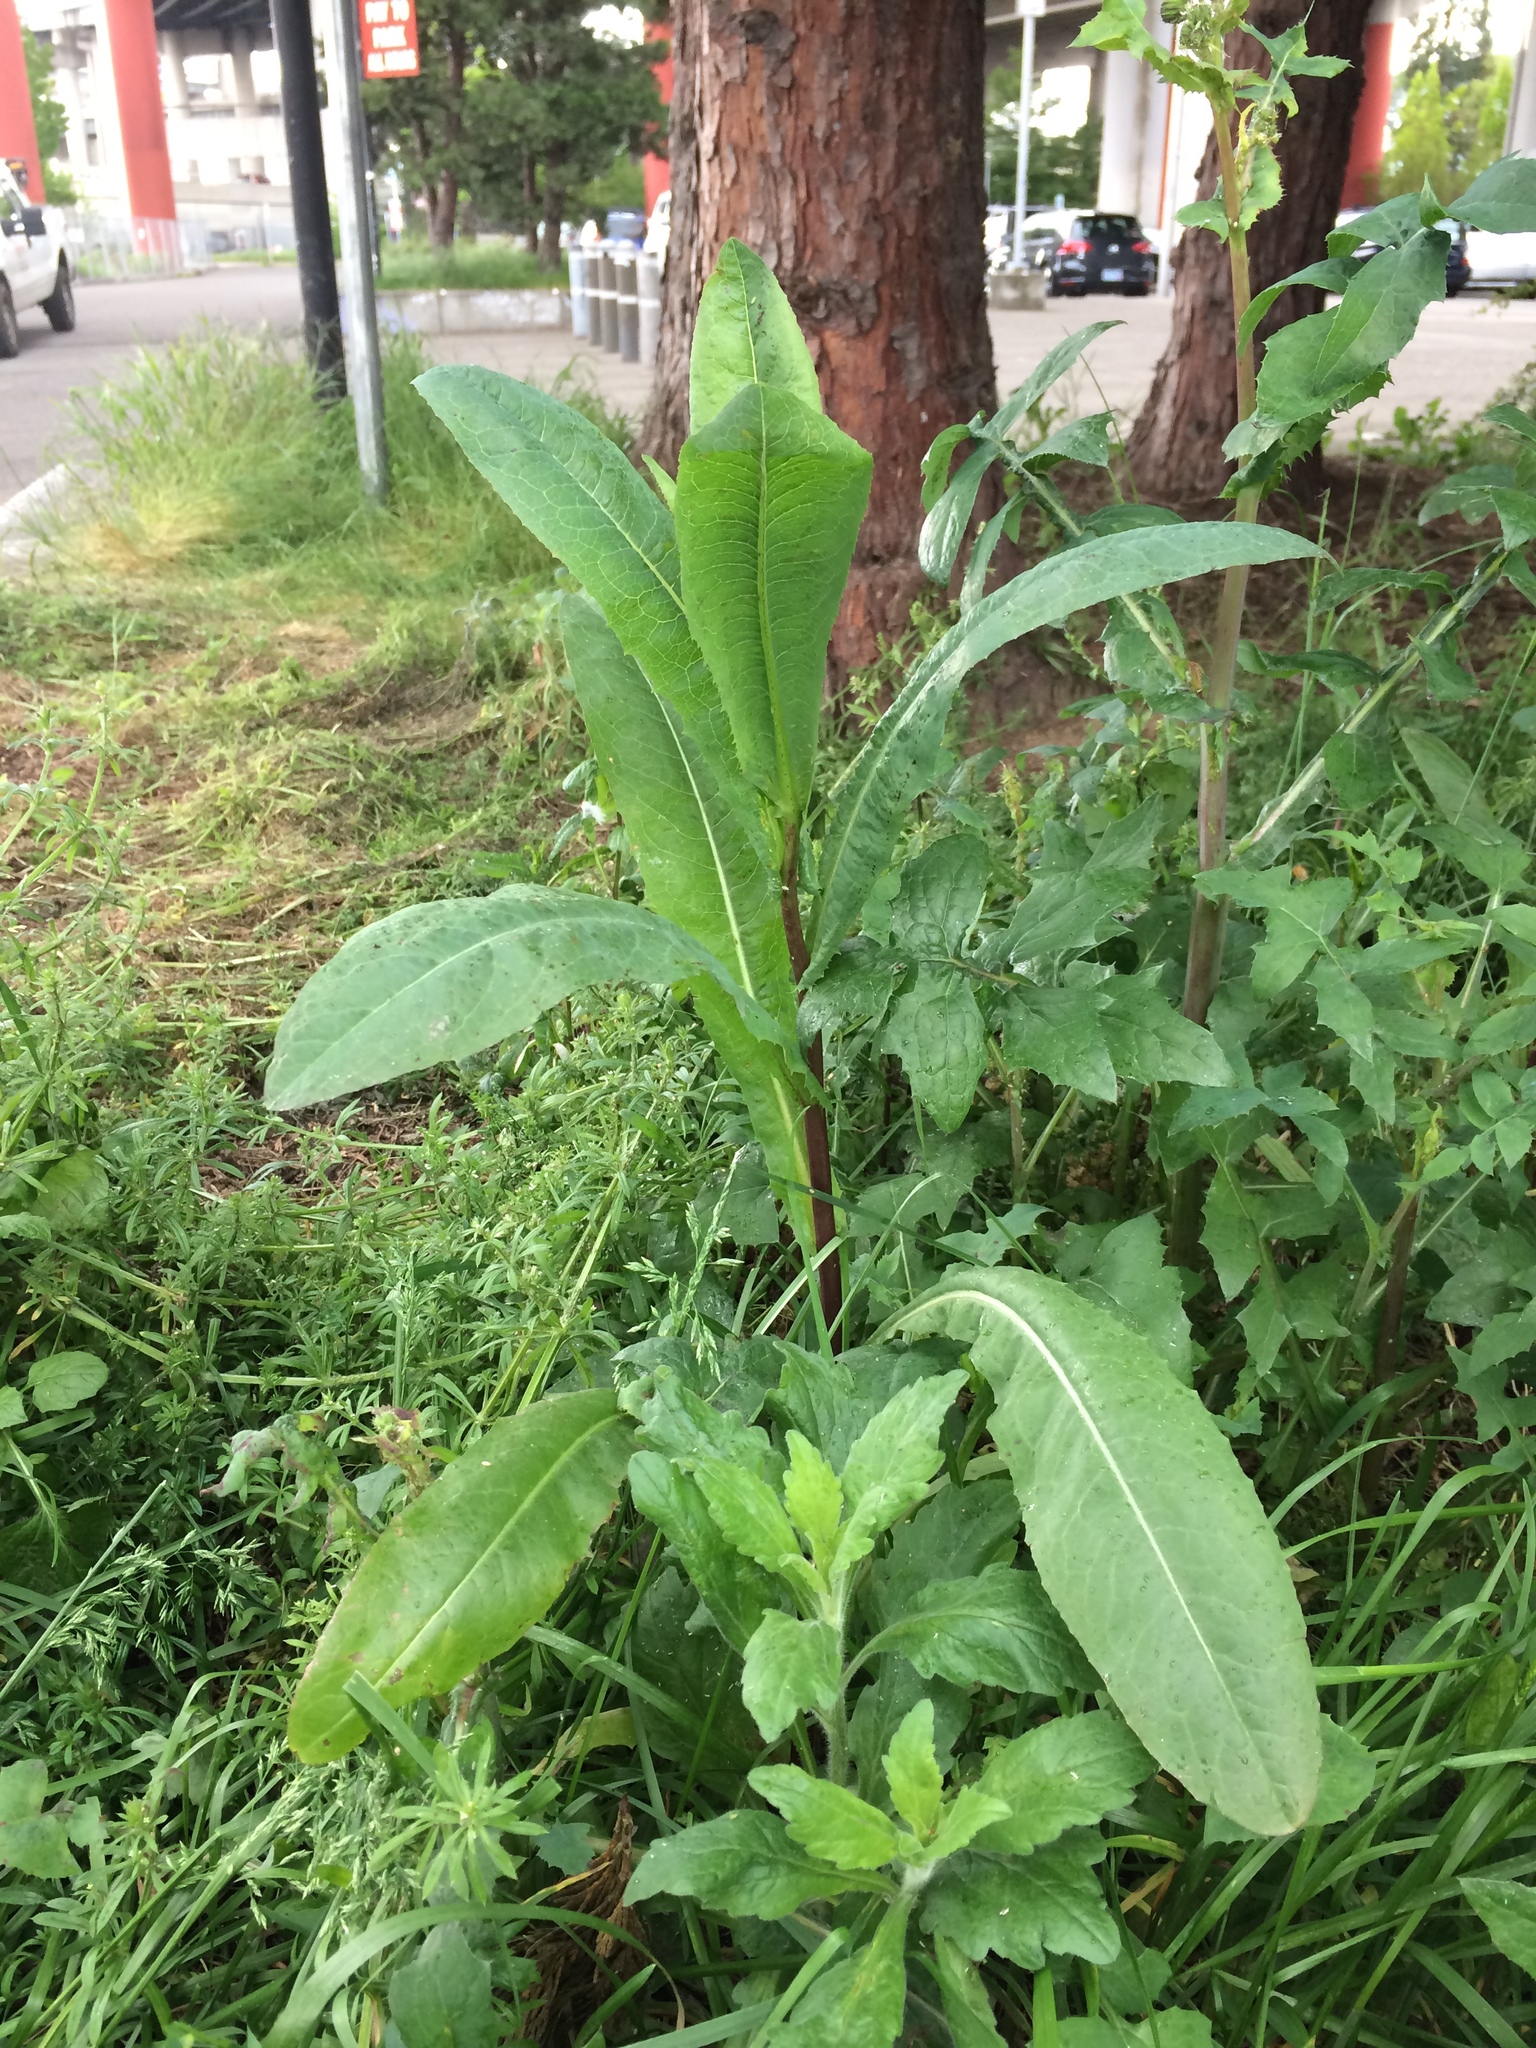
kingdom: Plantae
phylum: Tracheophyta
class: Magnoliopsida
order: Asterales
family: Asteraceae
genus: Lactuca
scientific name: Lactuca serriola
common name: Prickly lettuce
